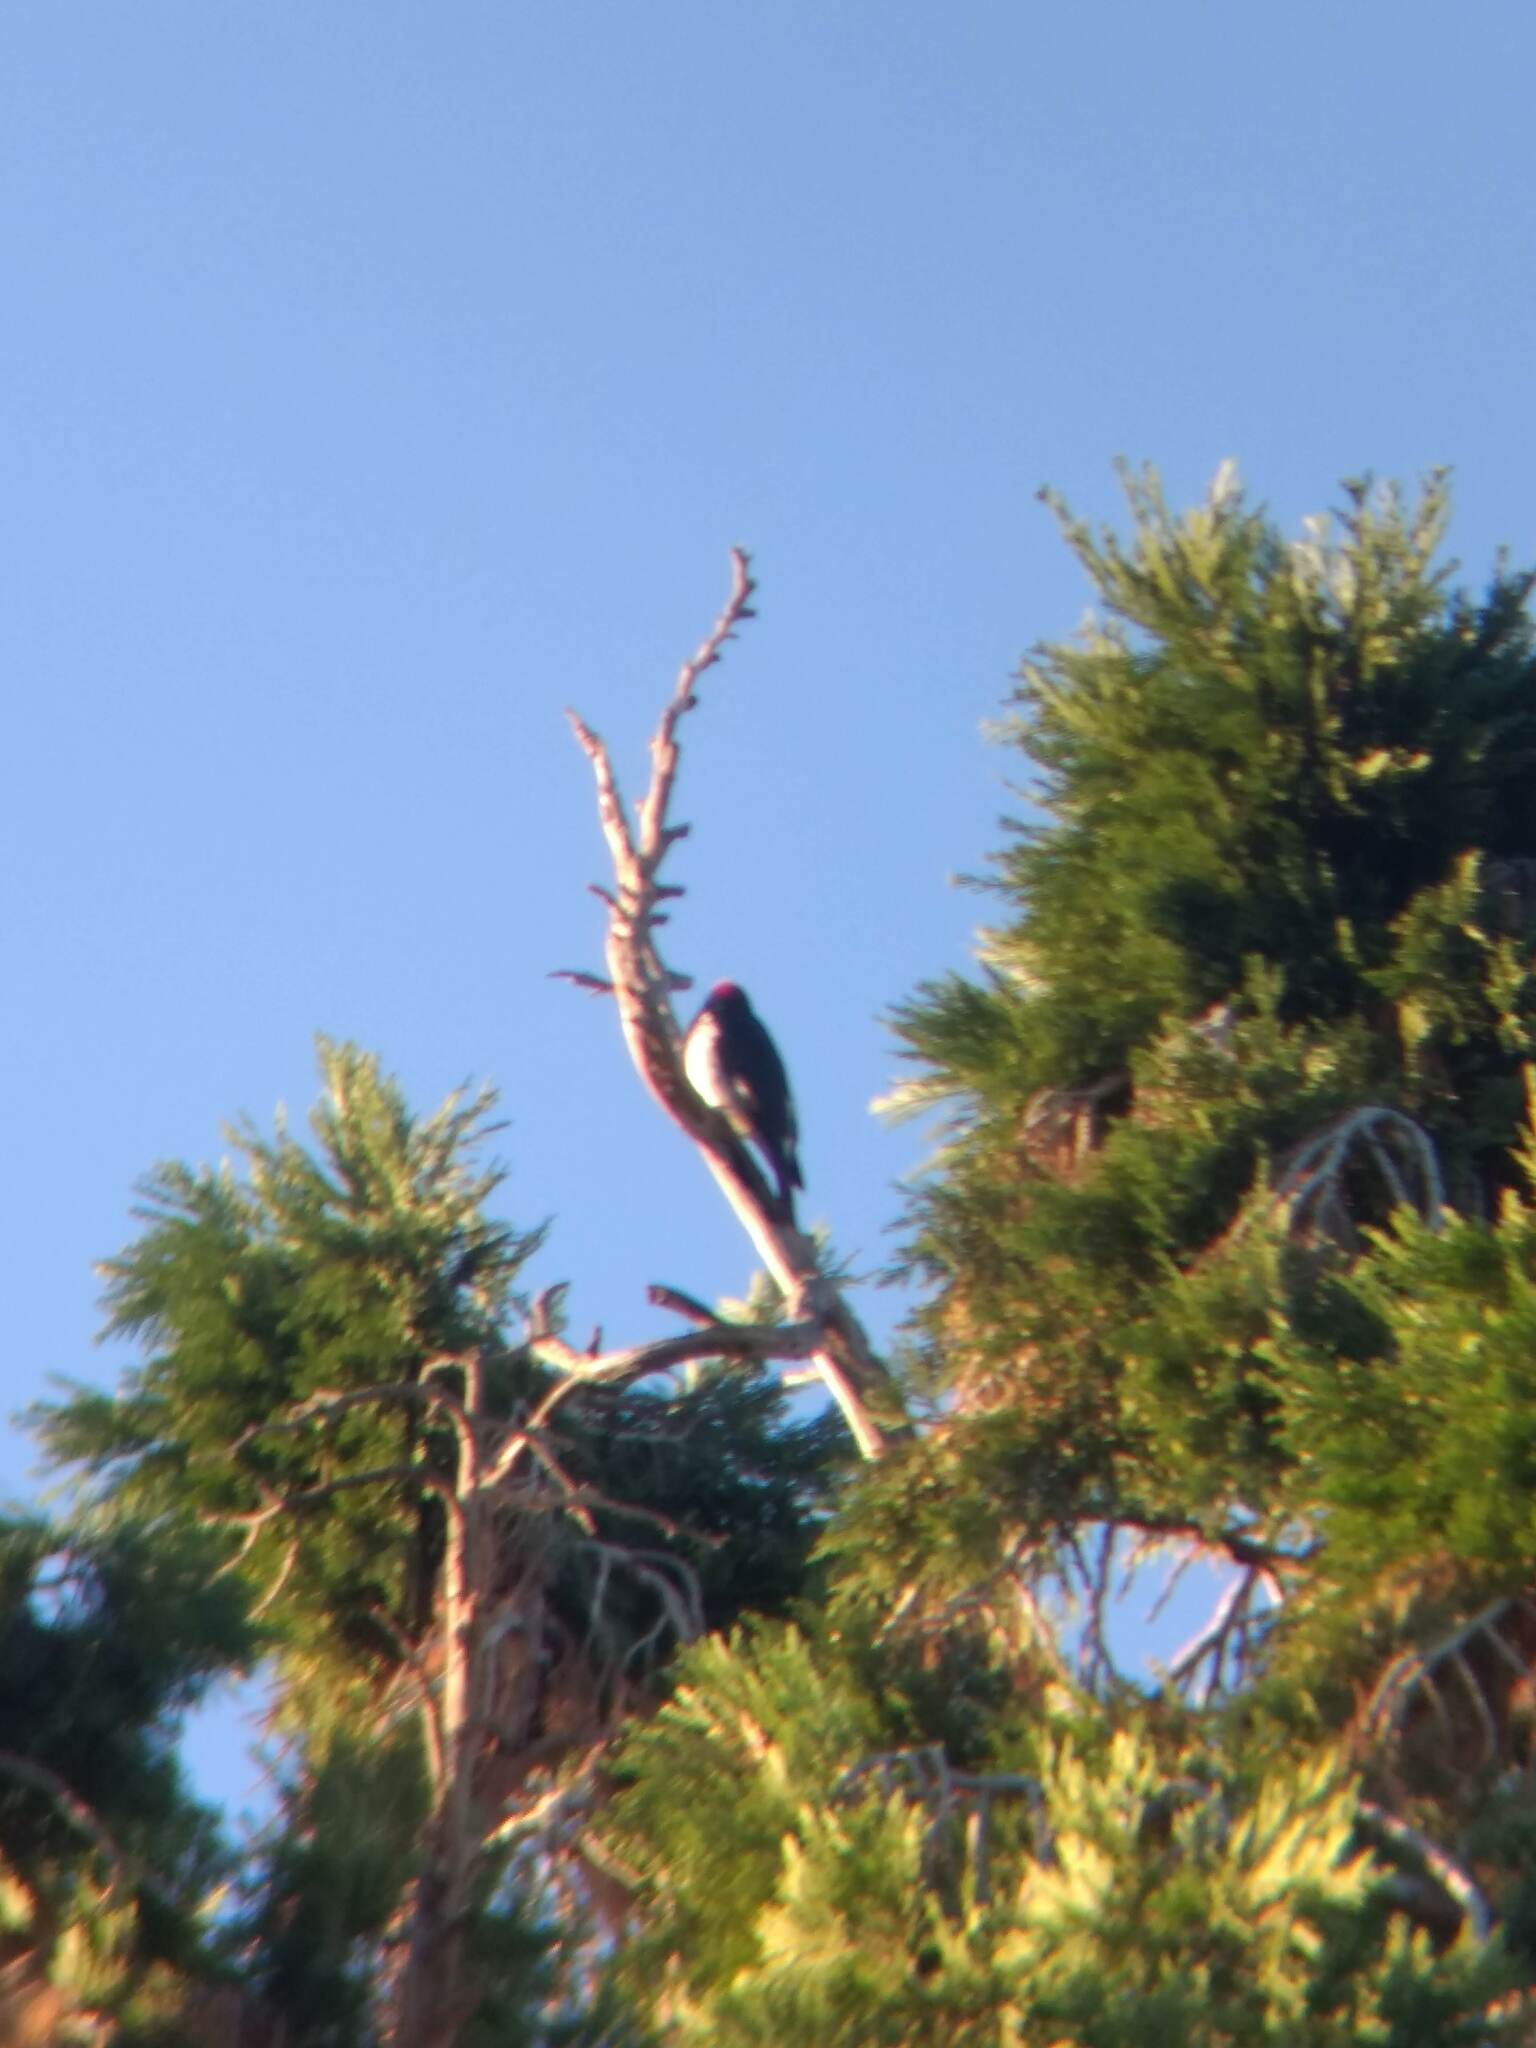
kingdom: Animalia
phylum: Chordata
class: Aves
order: Piciformes
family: Picidae
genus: Melanerpes
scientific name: Melanerpes formicivorus
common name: Acorn woodpecker
